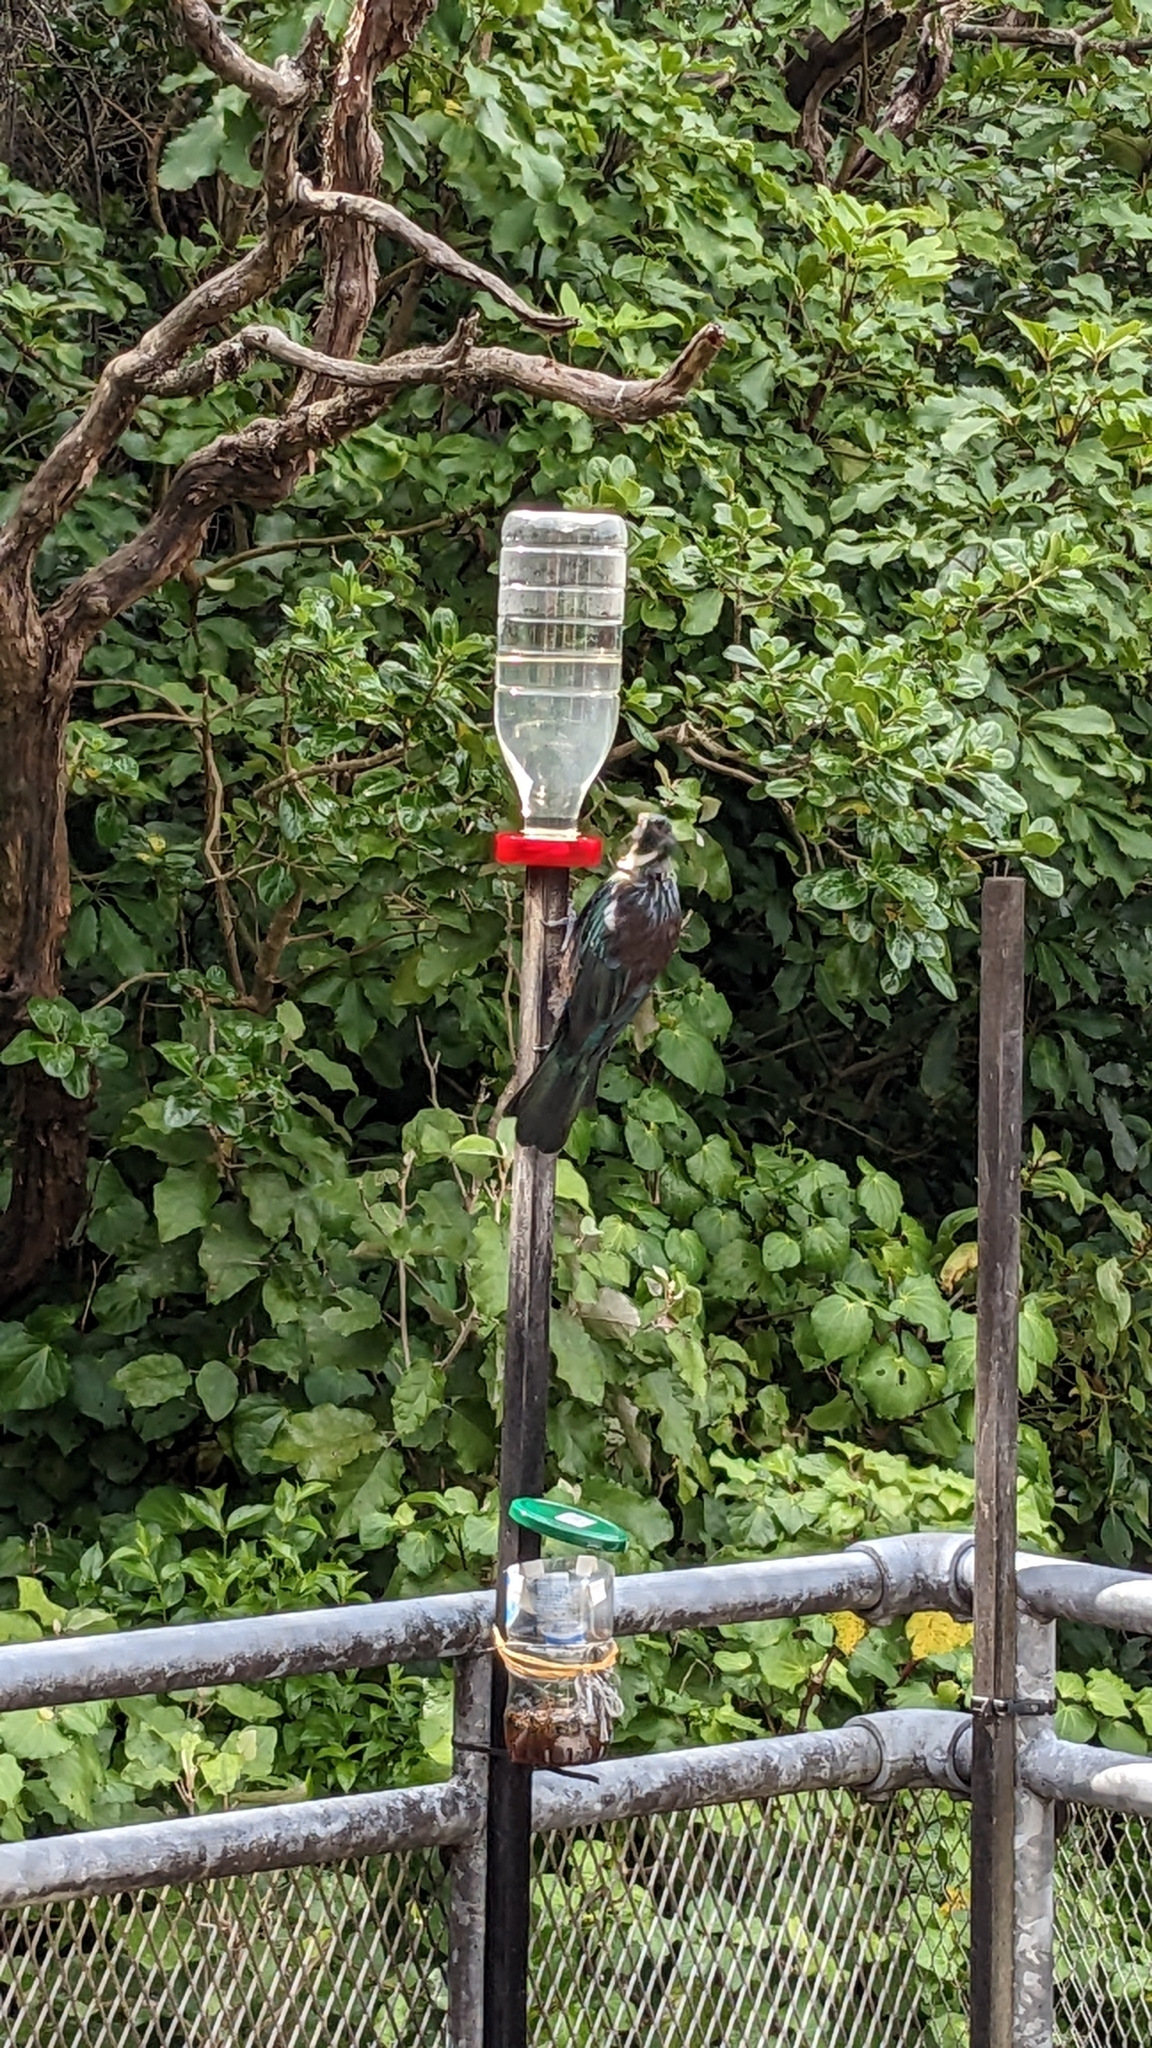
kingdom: Animalia
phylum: Chordata
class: Aves
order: Passeriformes
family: Meliphagidae
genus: Prosthemadera
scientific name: Prosthemadera novaeseelandiae
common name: Tui
